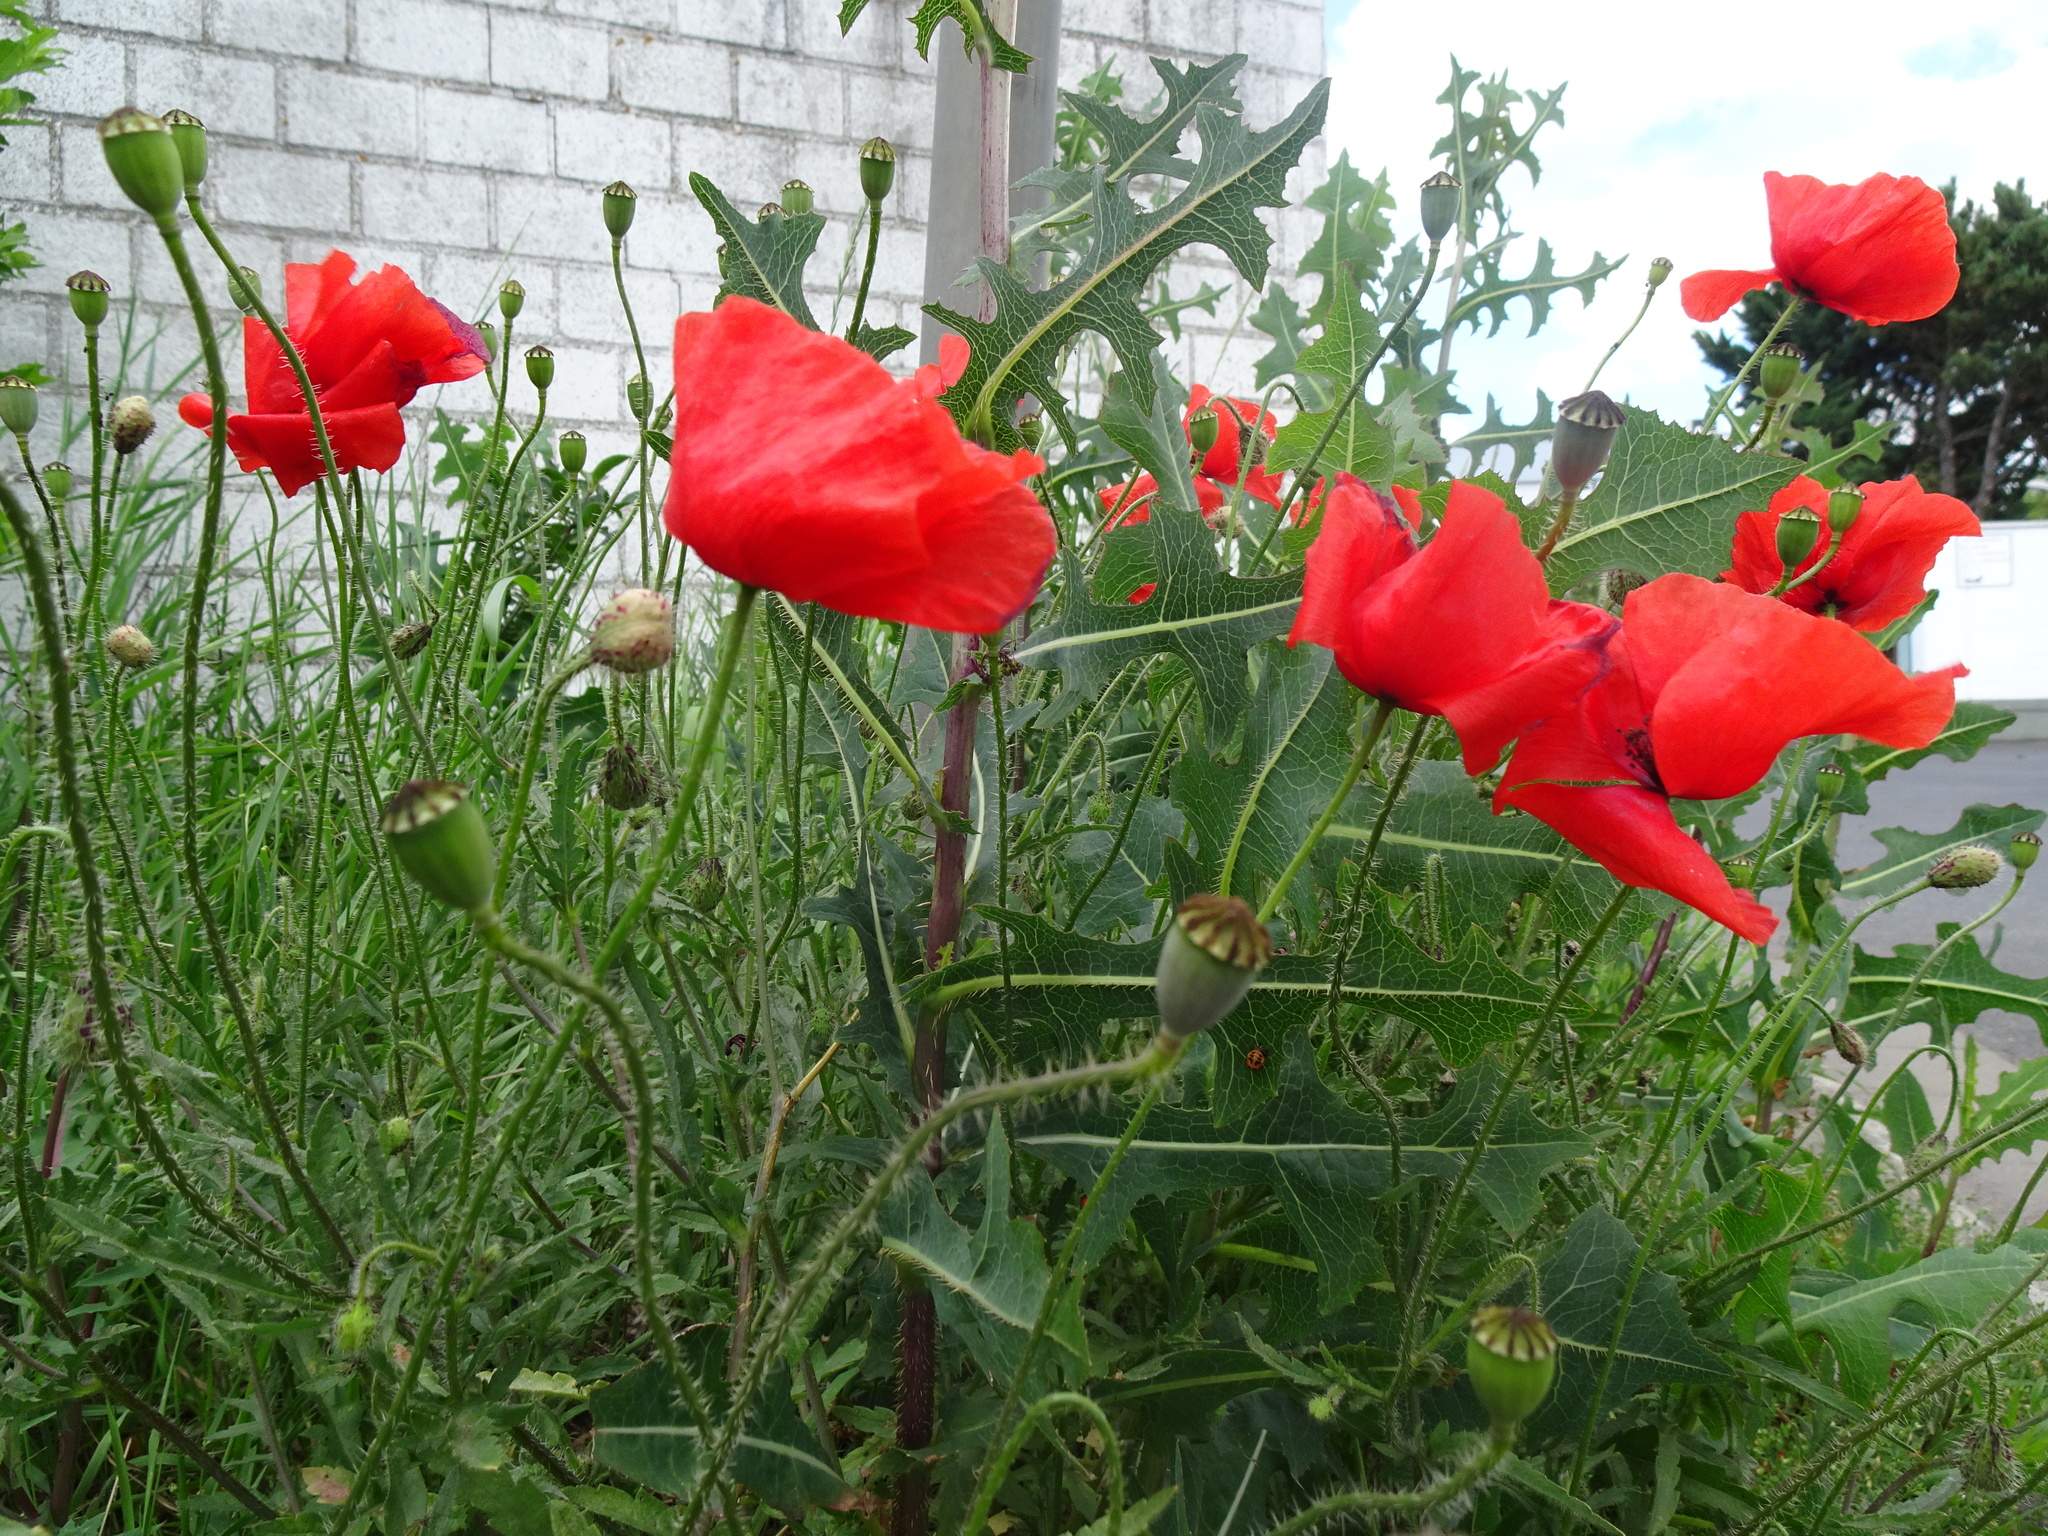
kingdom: Plantae
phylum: Tracheophyta
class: Magnoliopsida
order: Ranunculales
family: Papaveraceae
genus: Papaver
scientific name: Papaver rhoeas
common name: Corn poppy
